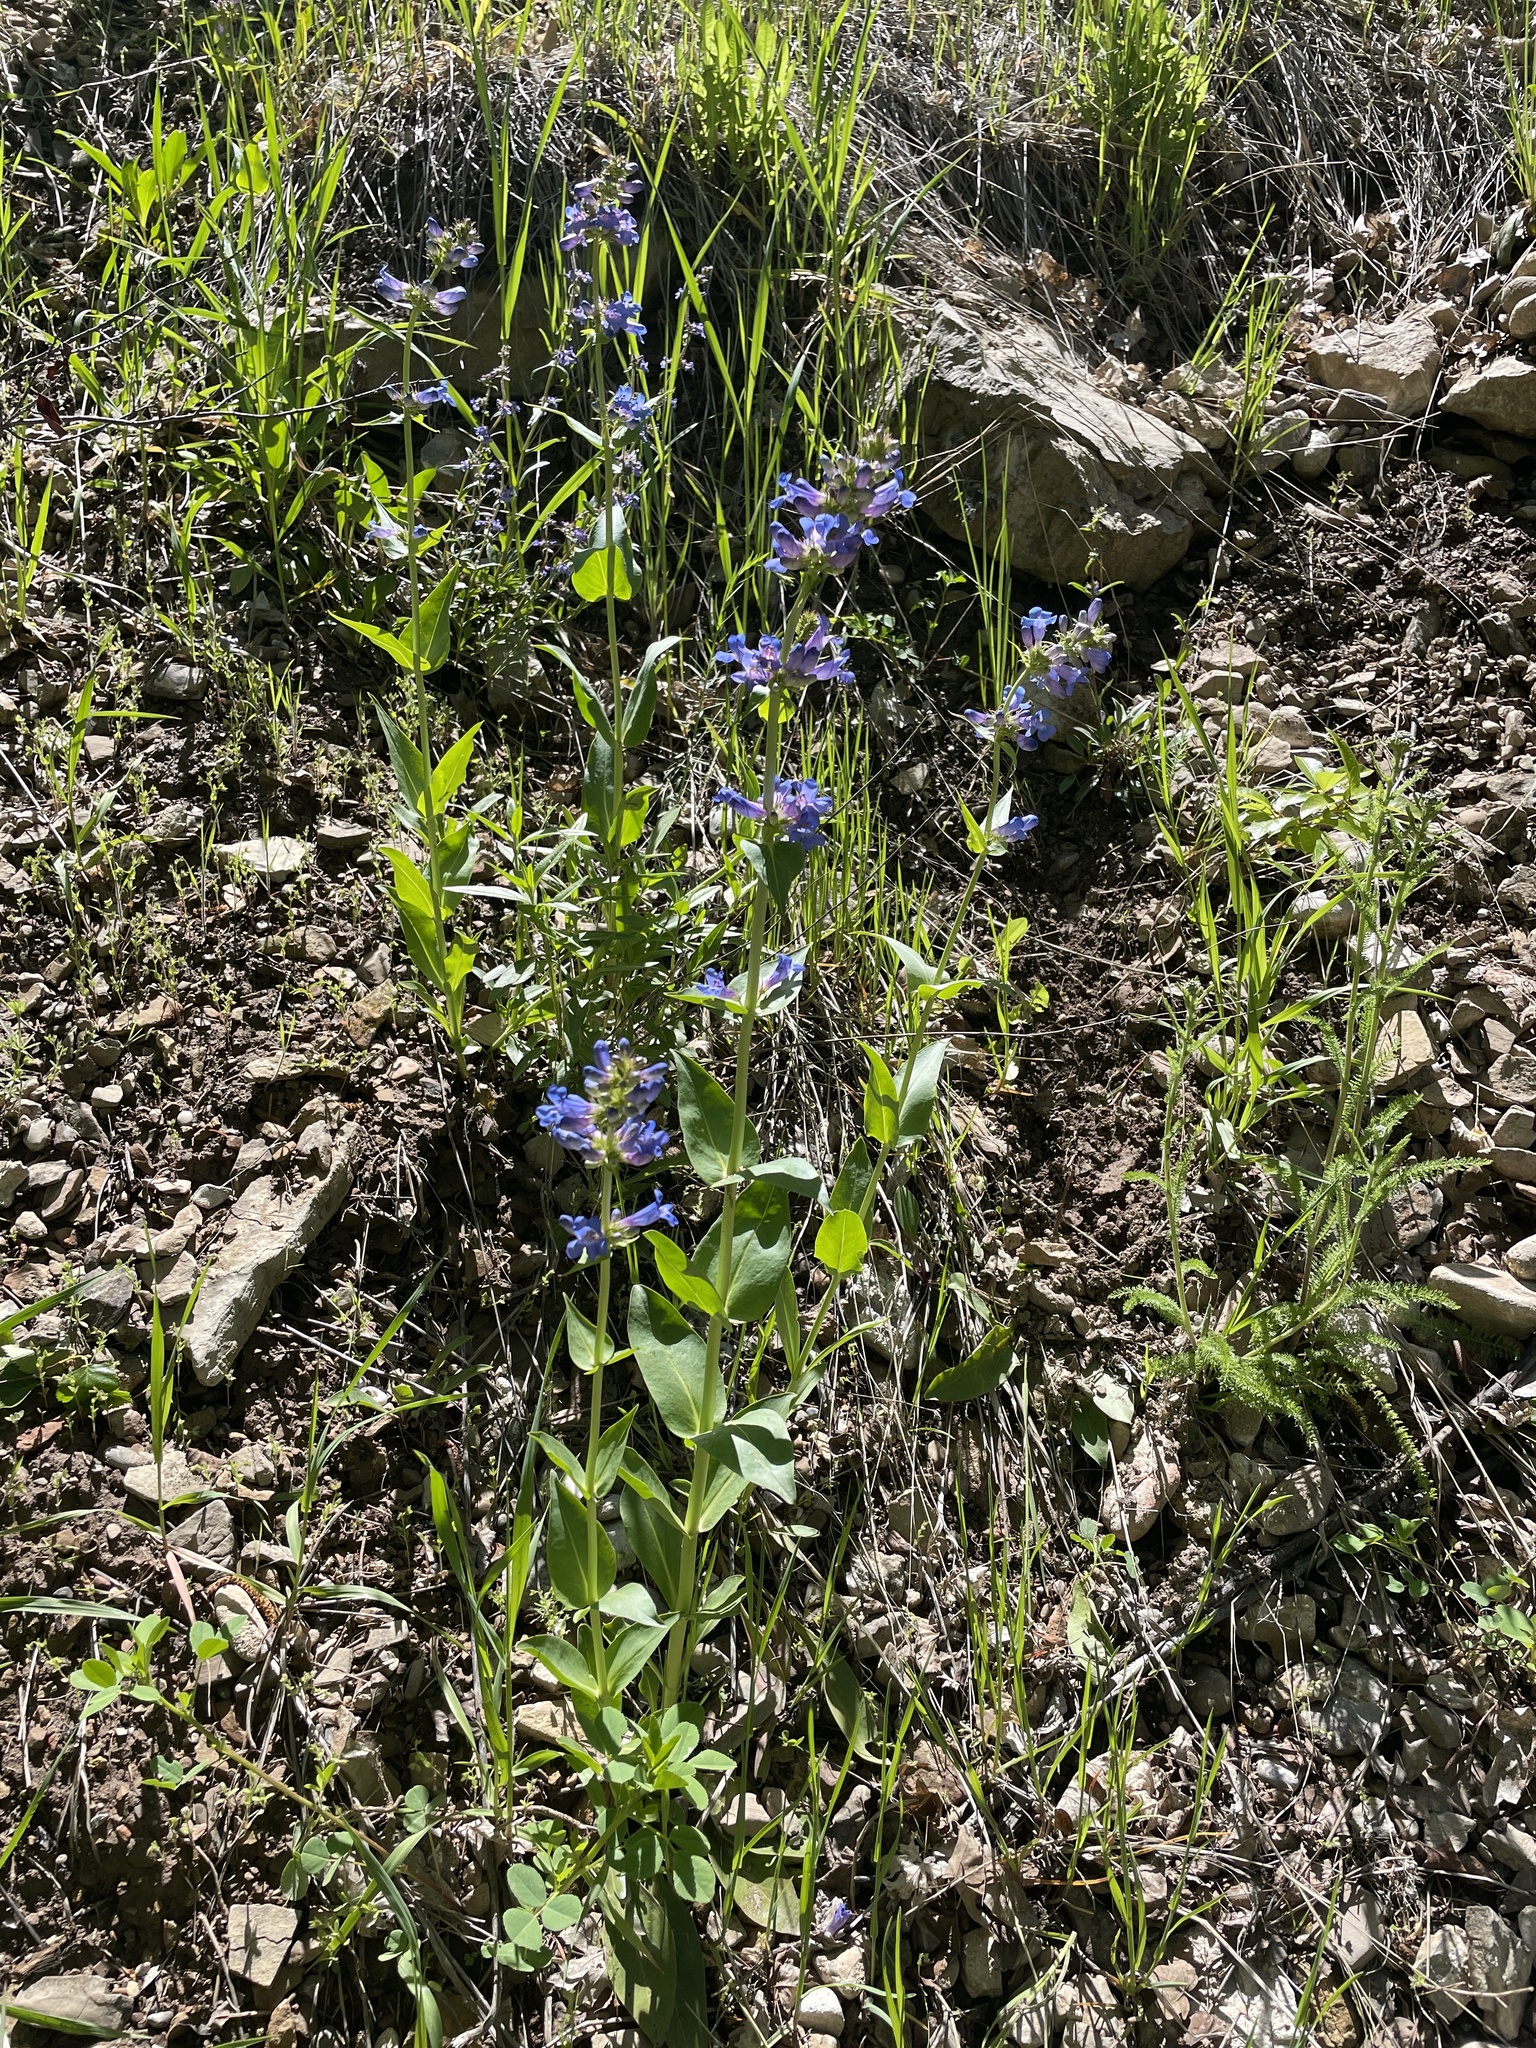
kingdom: Plantae
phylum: Tracheophyta
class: Magnoliopsida
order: Lamiales
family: Plantaginaceae
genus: Penstemon
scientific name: Penstemon cyananthus
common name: Wasatch penstemon
